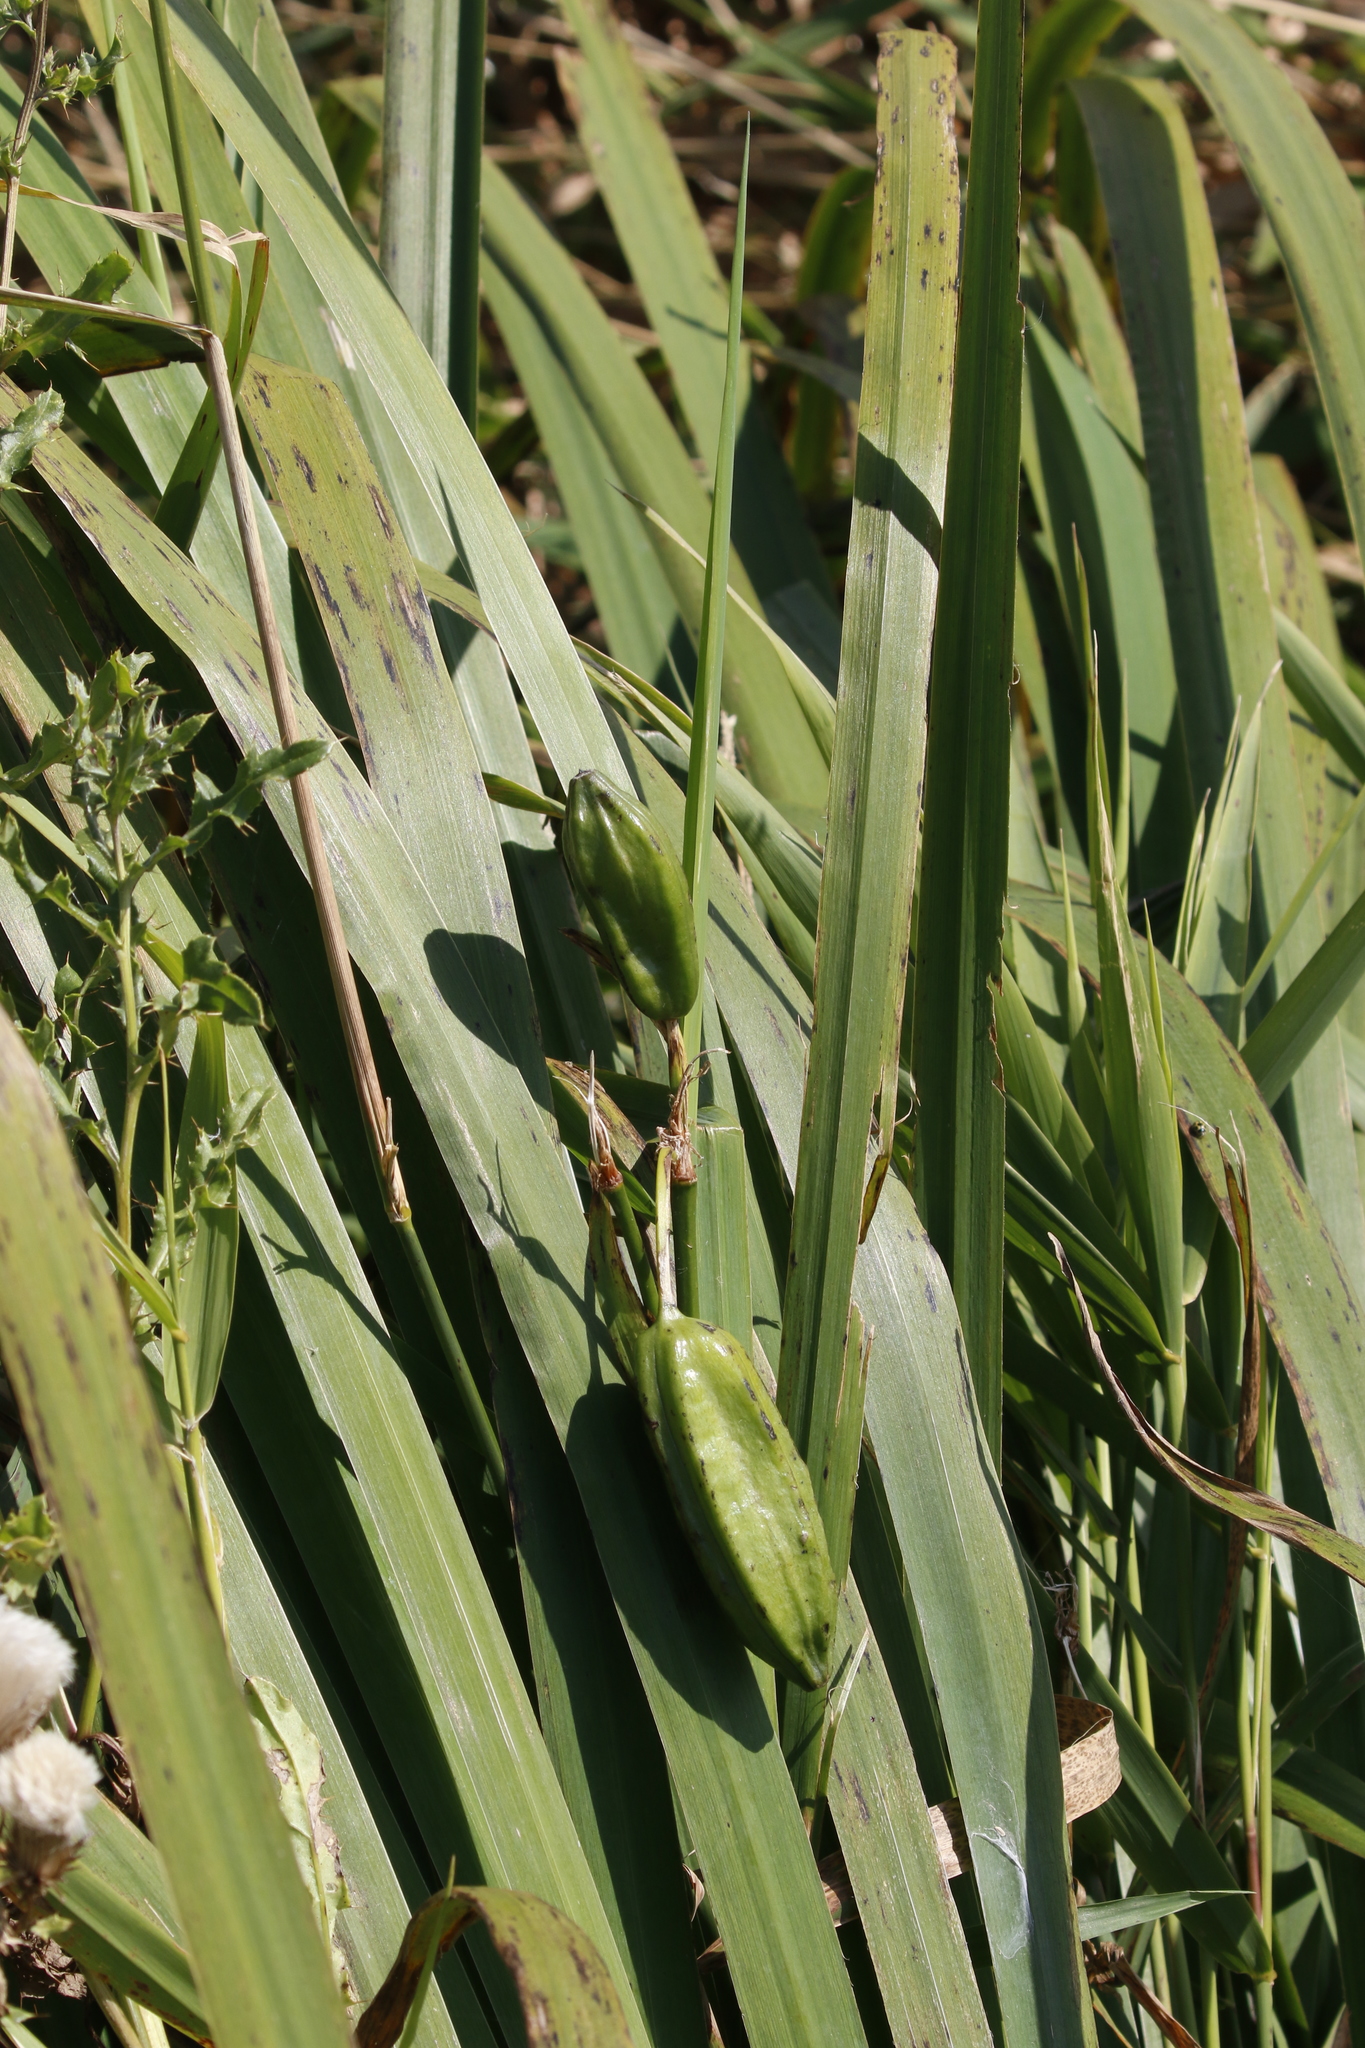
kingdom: Plantae
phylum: Tracheophyta
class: Liliopsida
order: Asparagales
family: Iridaceae
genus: Iris
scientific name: Iris pseudacorus
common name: Yellow flag
